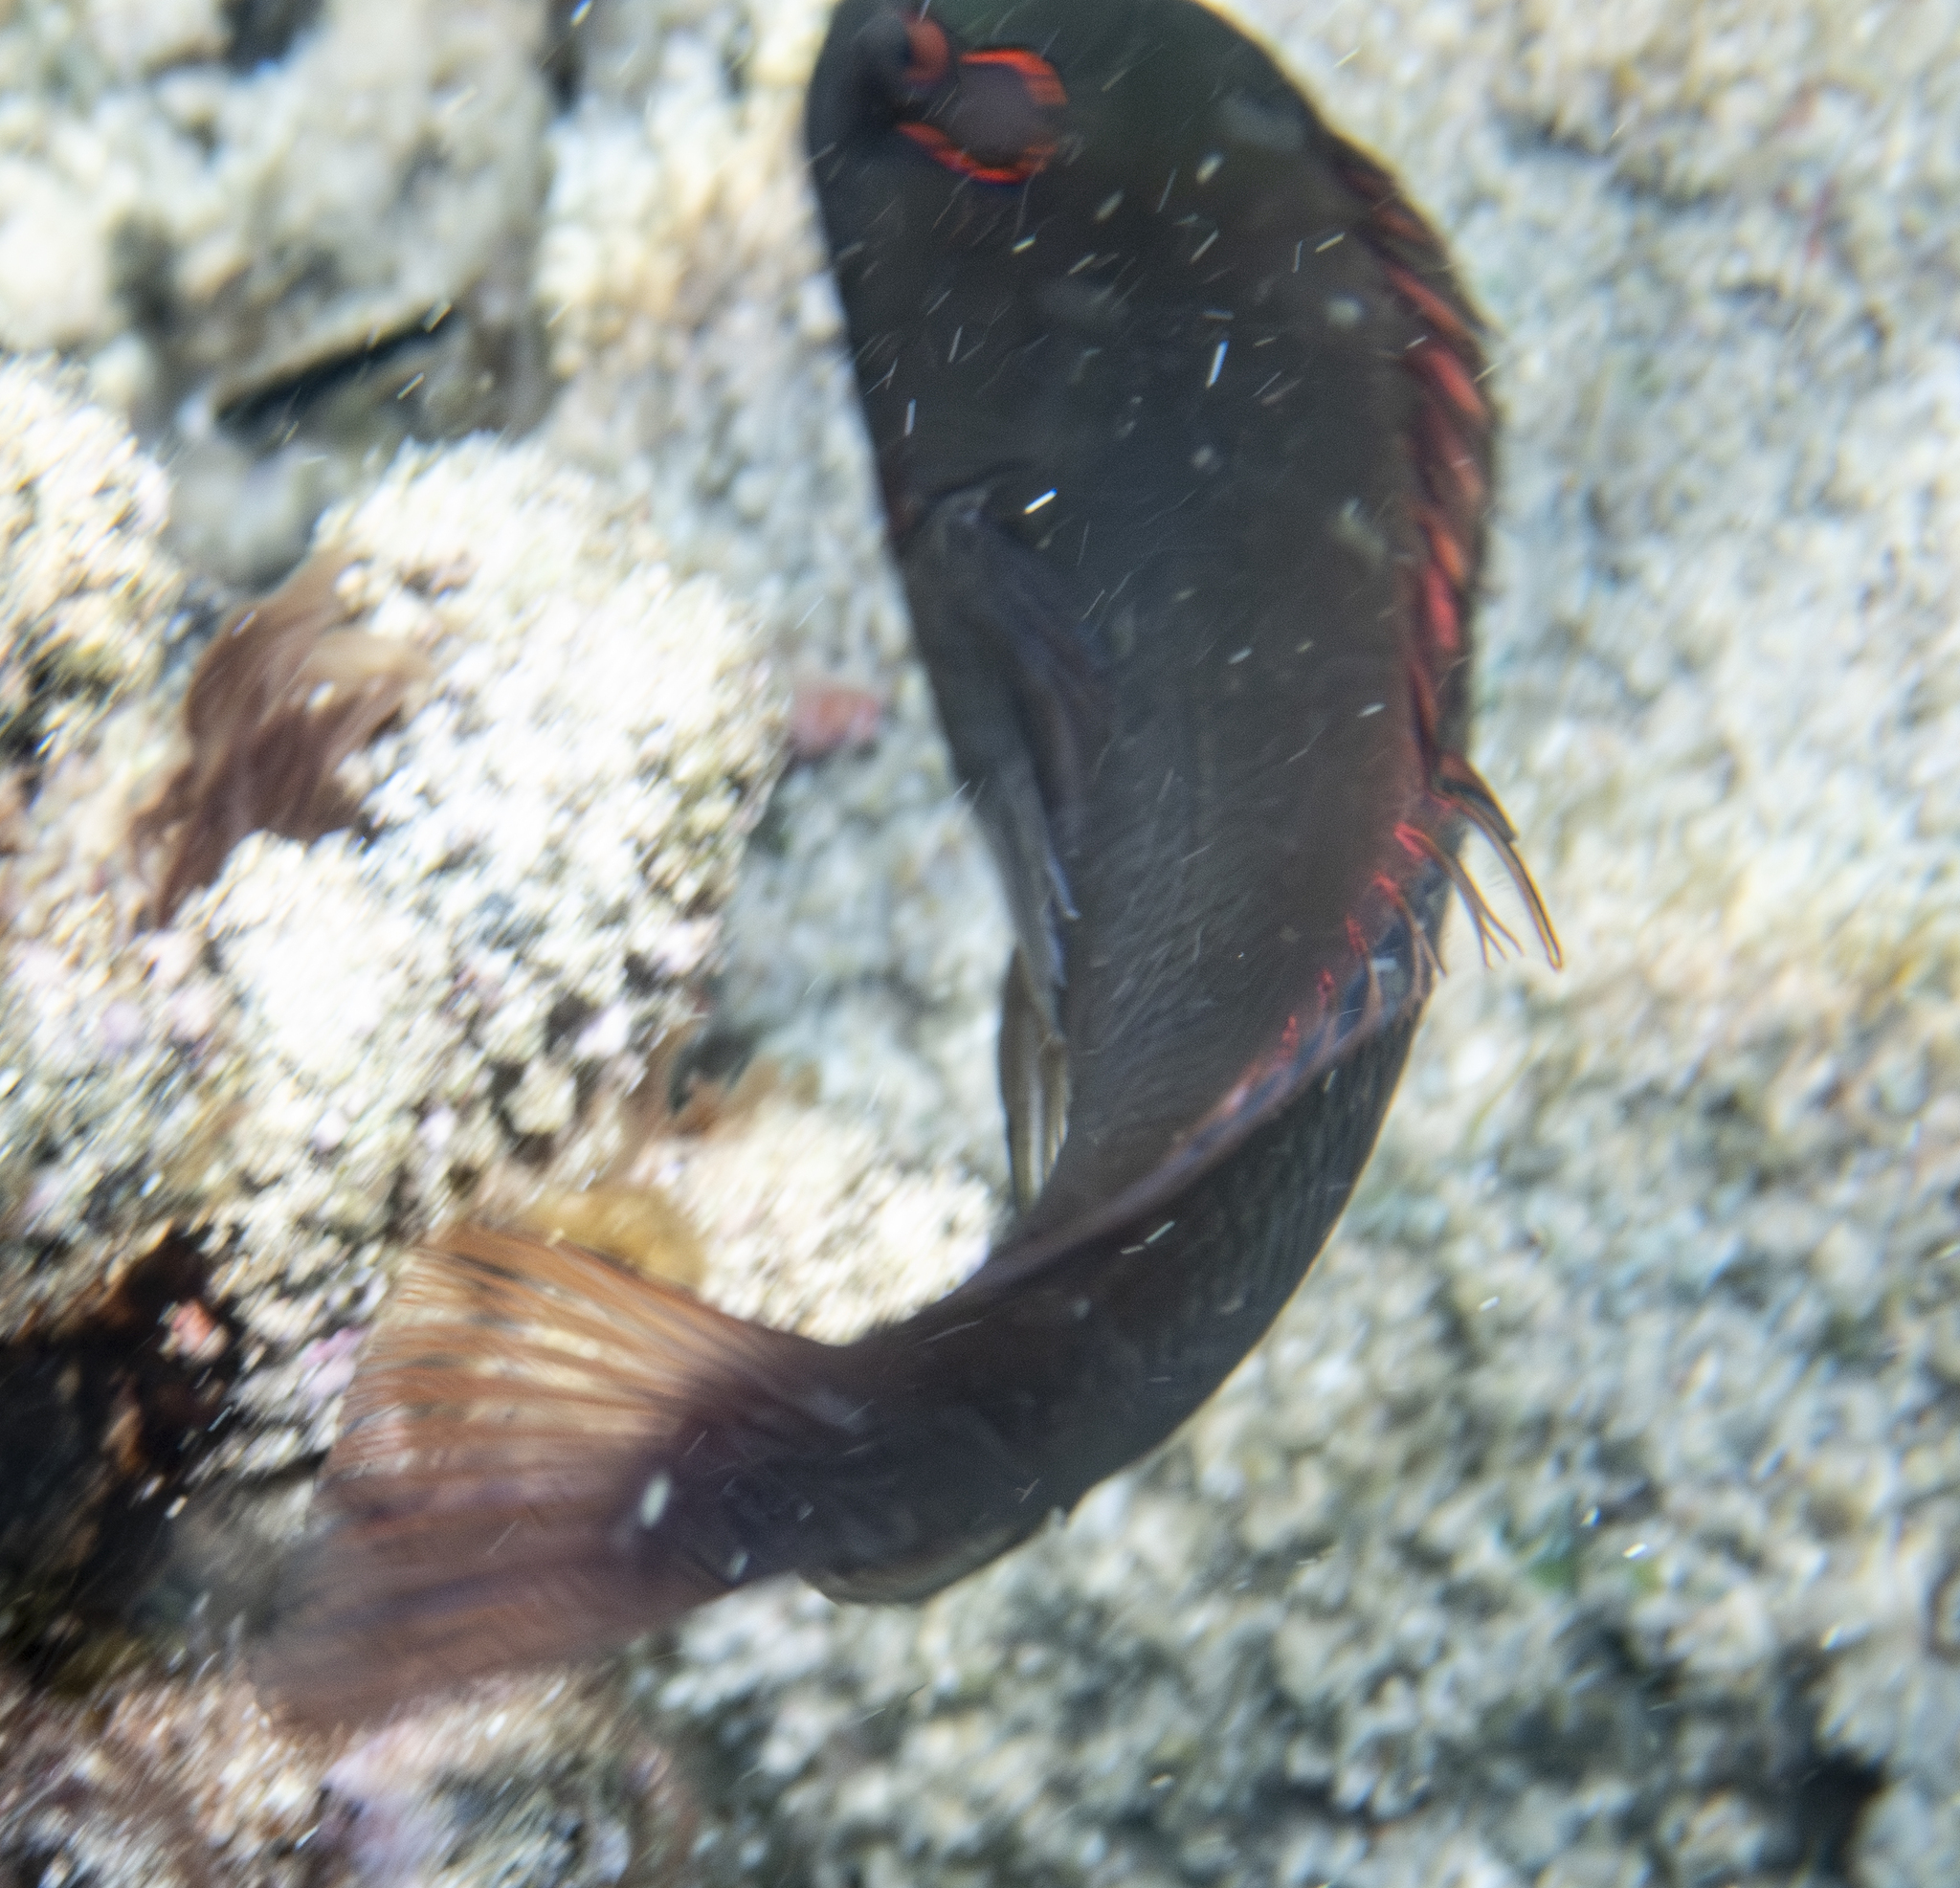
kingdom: Animalia
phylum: Chordata
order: Perciformes
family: Cirrhitidae
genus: Paracirrhites
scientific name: Paracirrhites arcatus
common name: Arc-eye hawkfish
